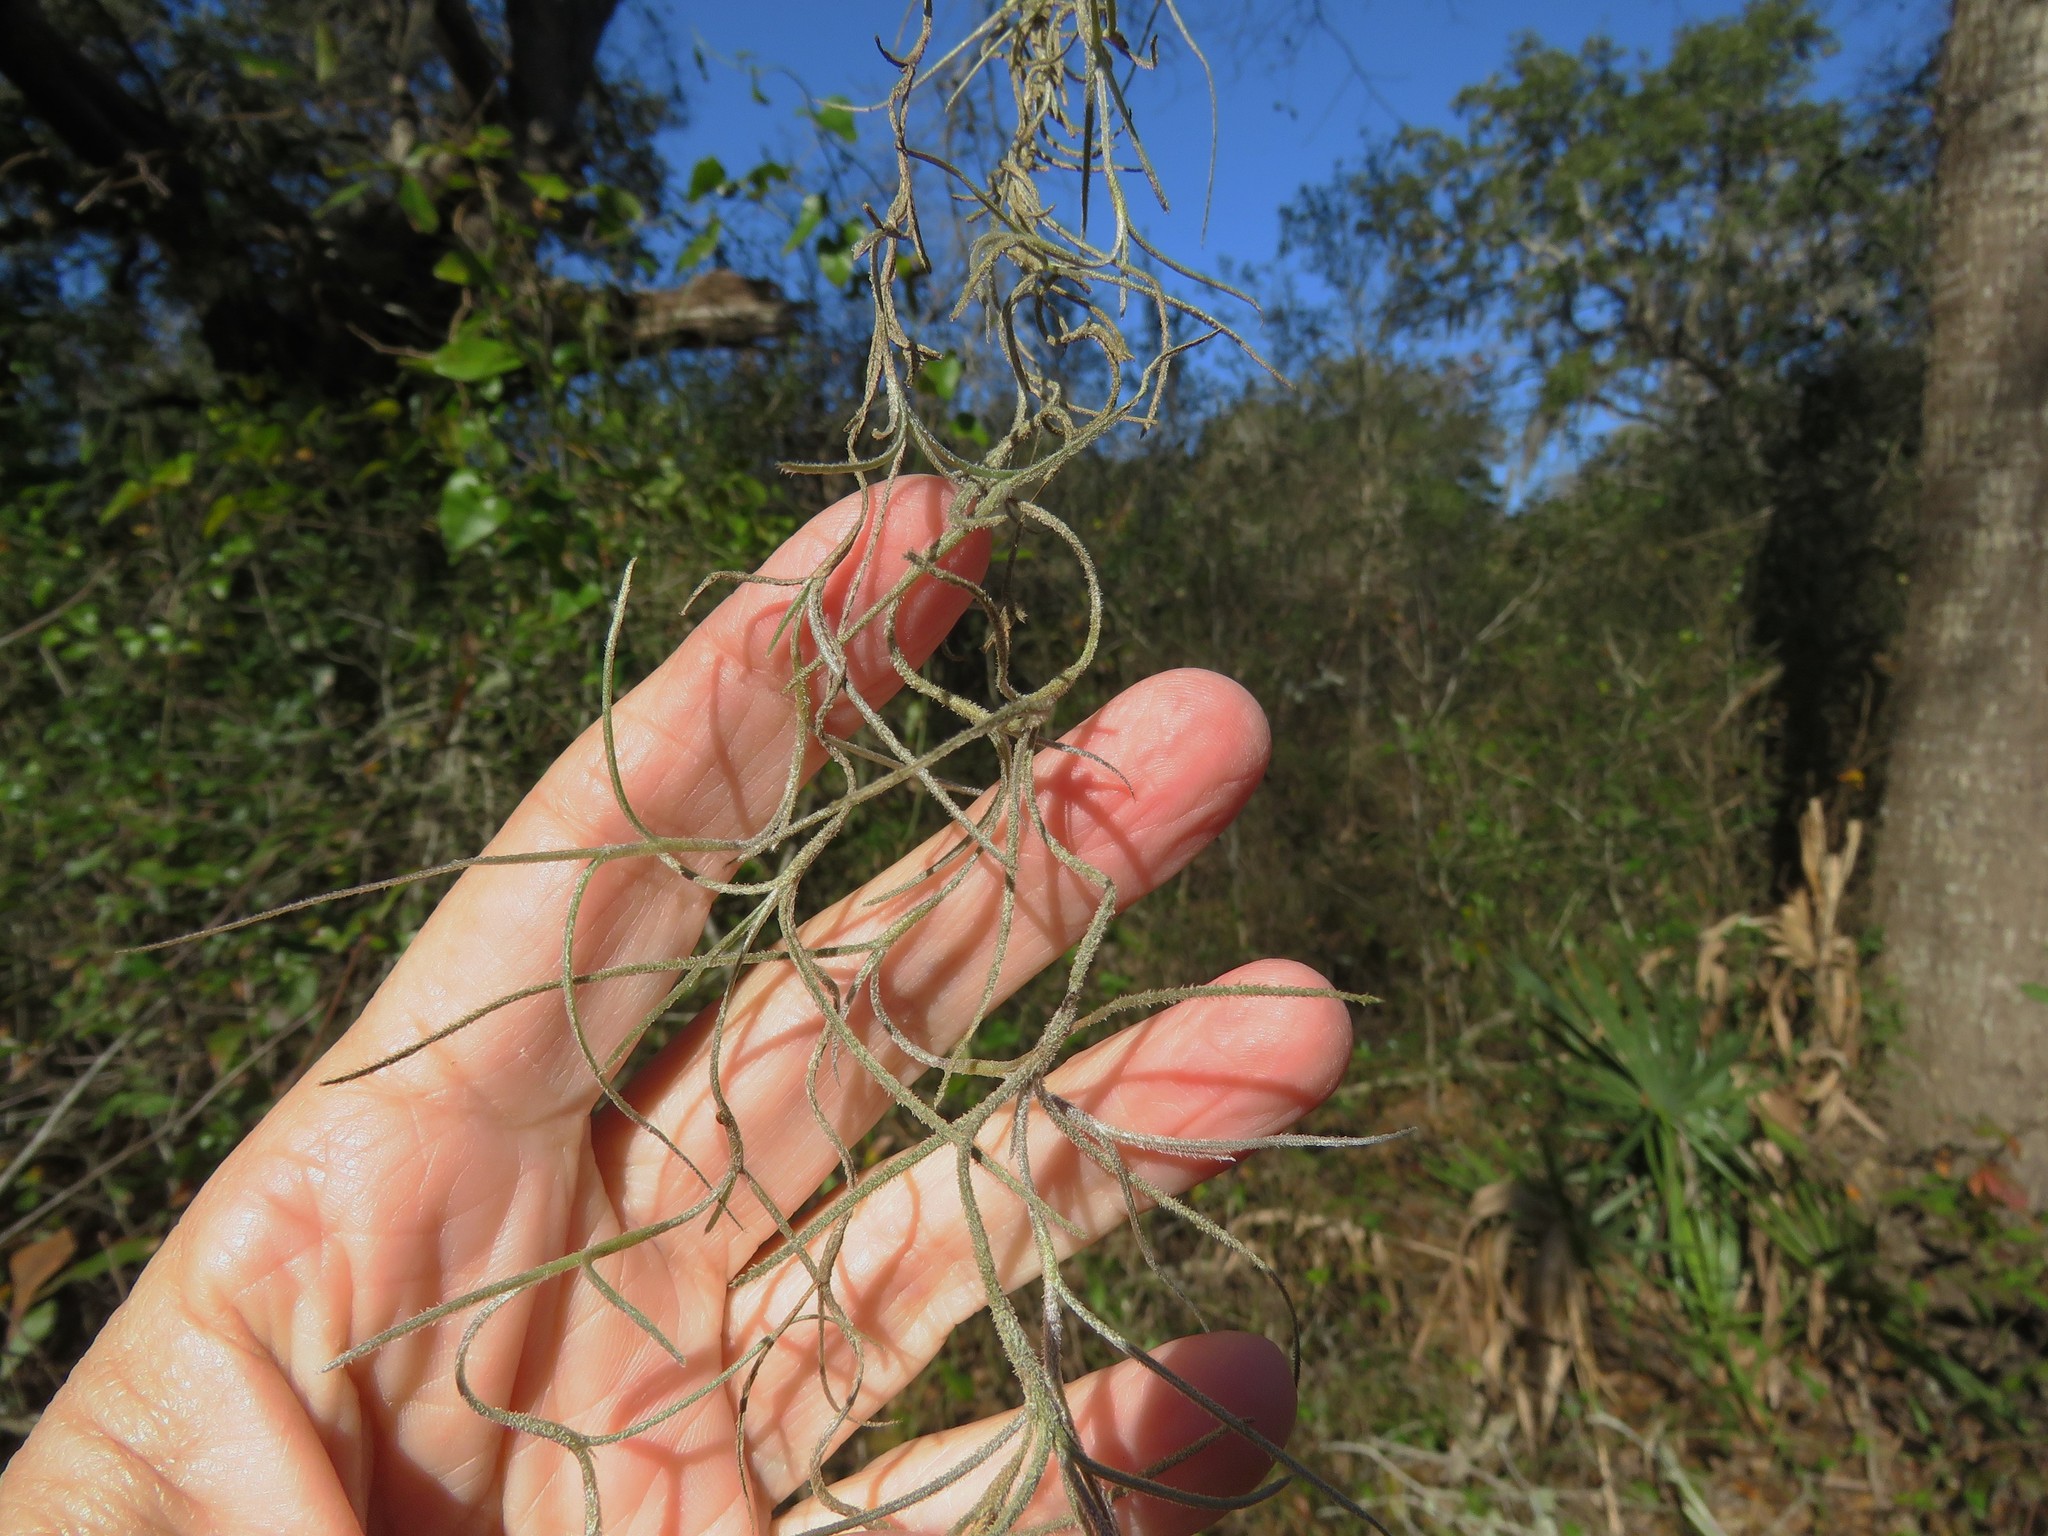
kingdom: Plantae
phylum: Tracheophyta
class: Liliopsida
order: Poales
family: Bromeliaceae
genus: Tillandsia
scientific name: Tillandsia usneoides
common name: Spanish moss
